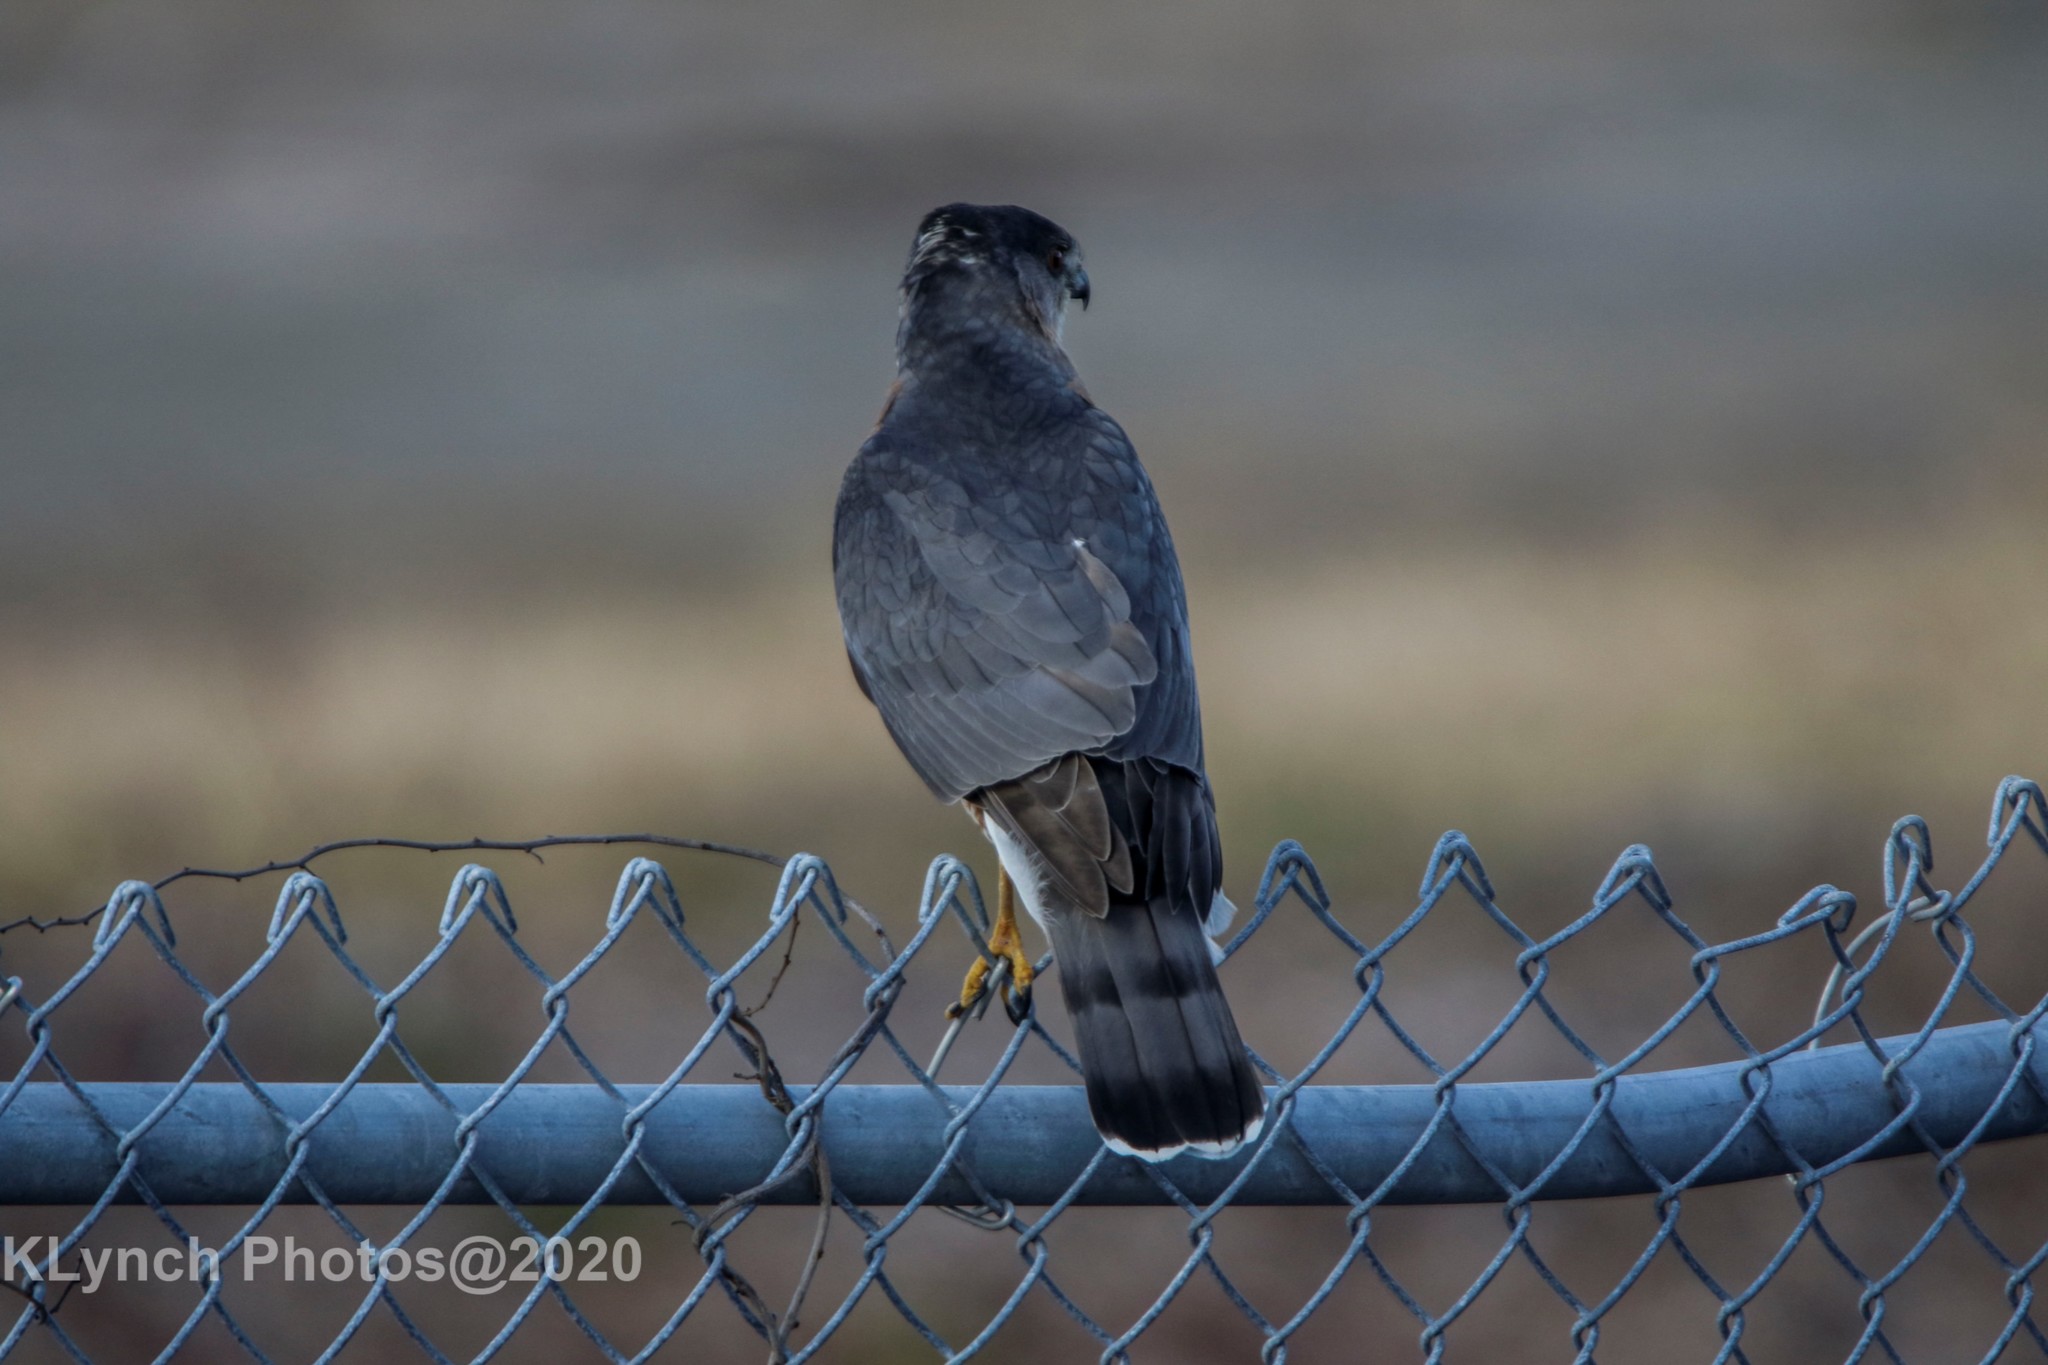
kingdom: Animalia
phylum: Chordata
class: Aves
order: Accipitriformes
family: Accipitridae
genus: Accipiter
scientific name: Accipiter cooperii
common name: Cooper's hawk
